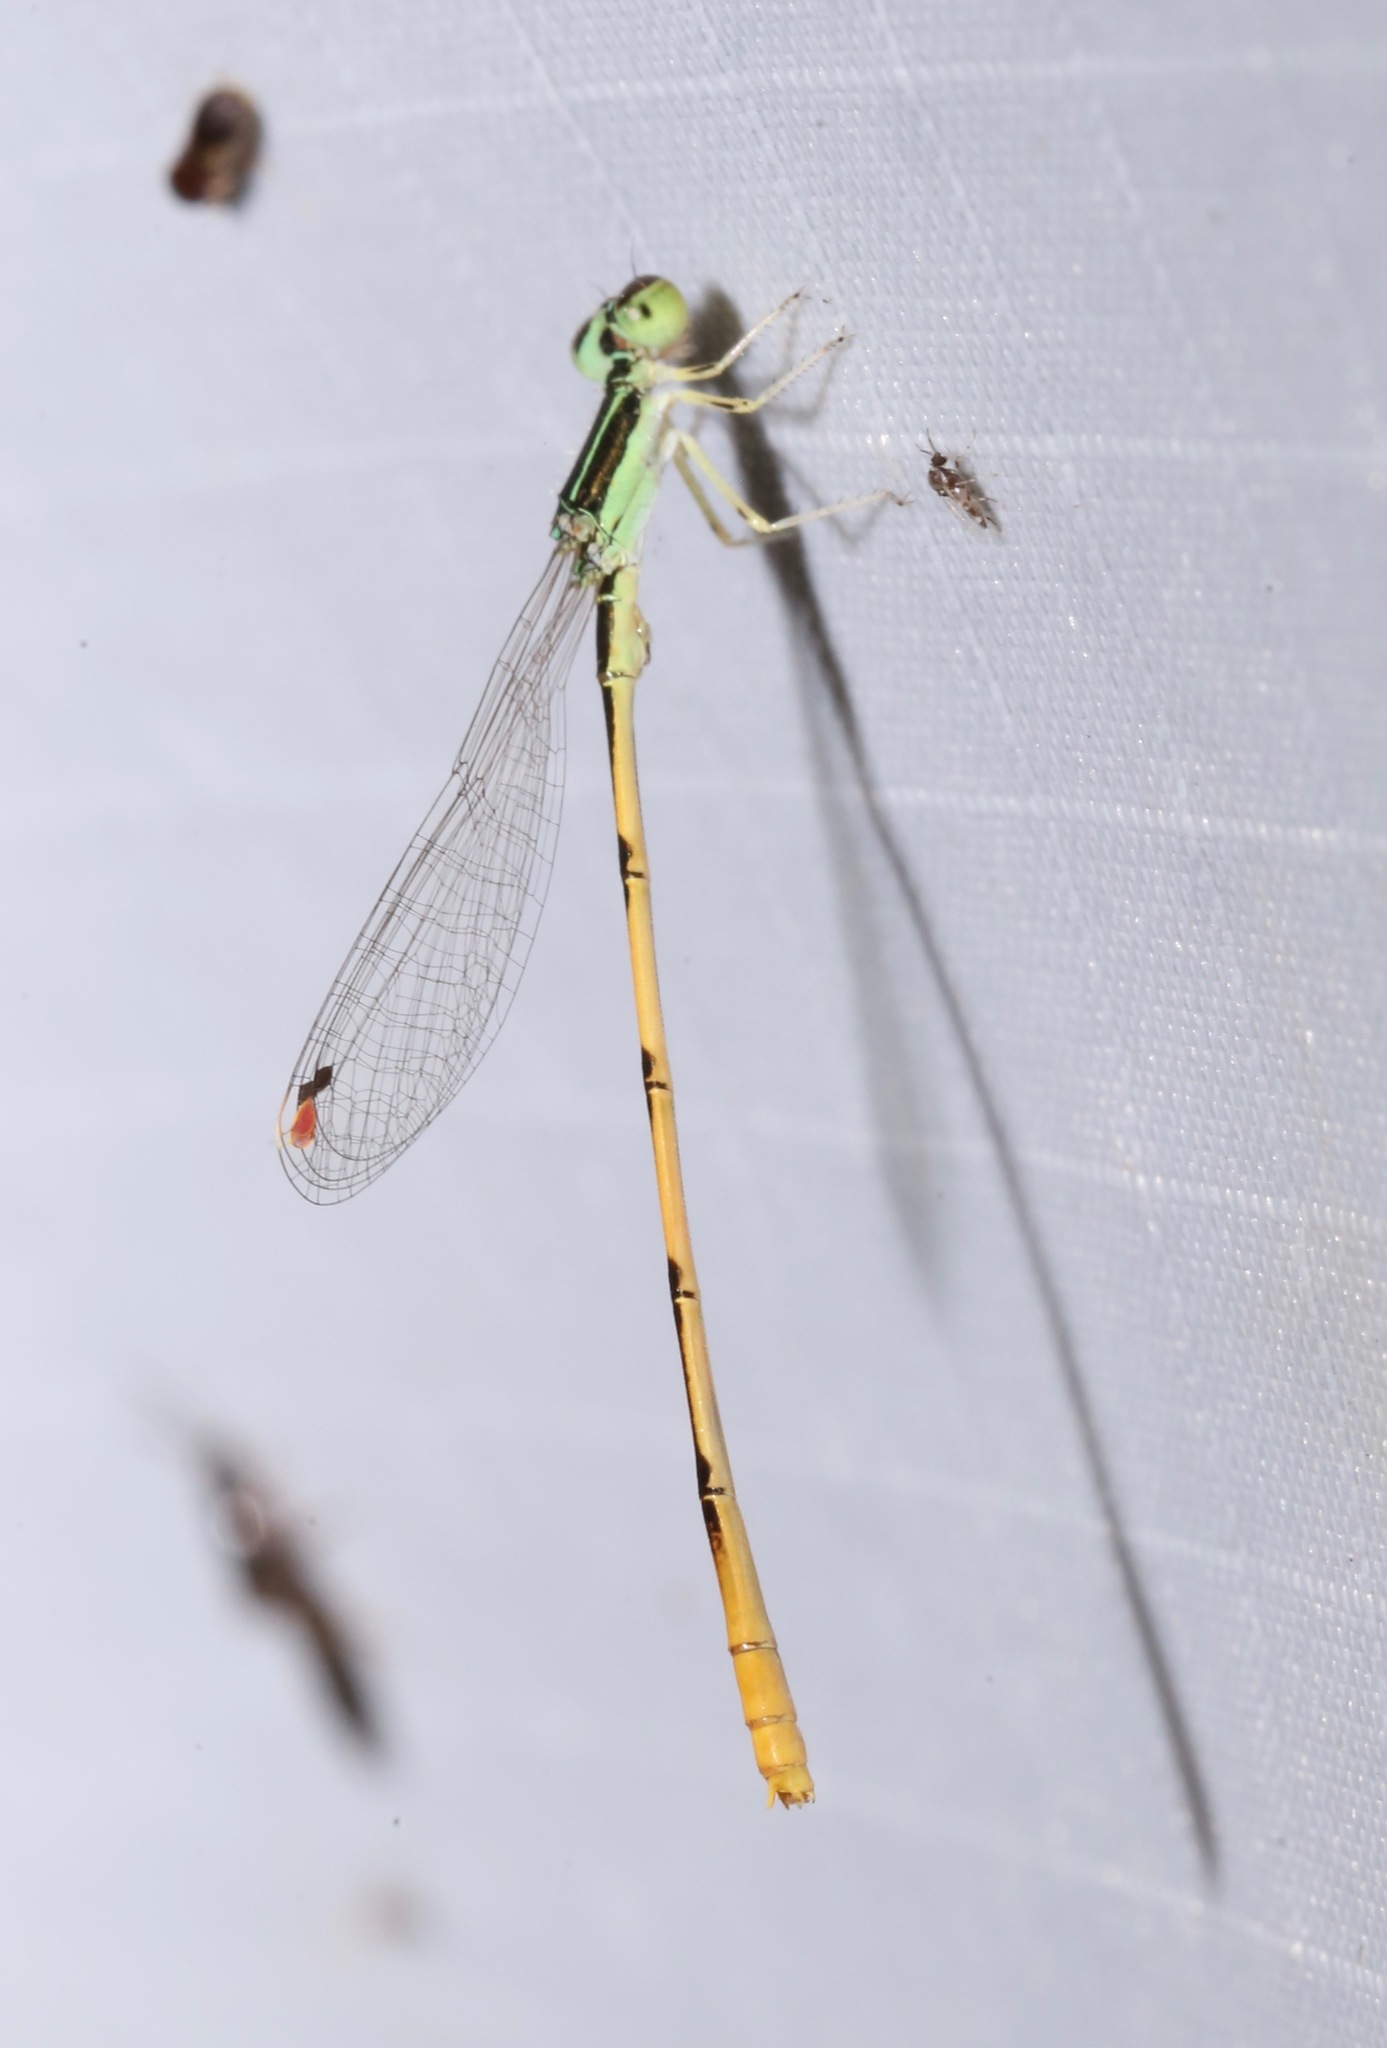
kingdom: Animalia
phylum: Arthropoda
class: Insecta
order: Odonata
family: Coenagrionidae
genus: Ischnura
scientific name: Ischnura hastata
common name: Citrine forktail
